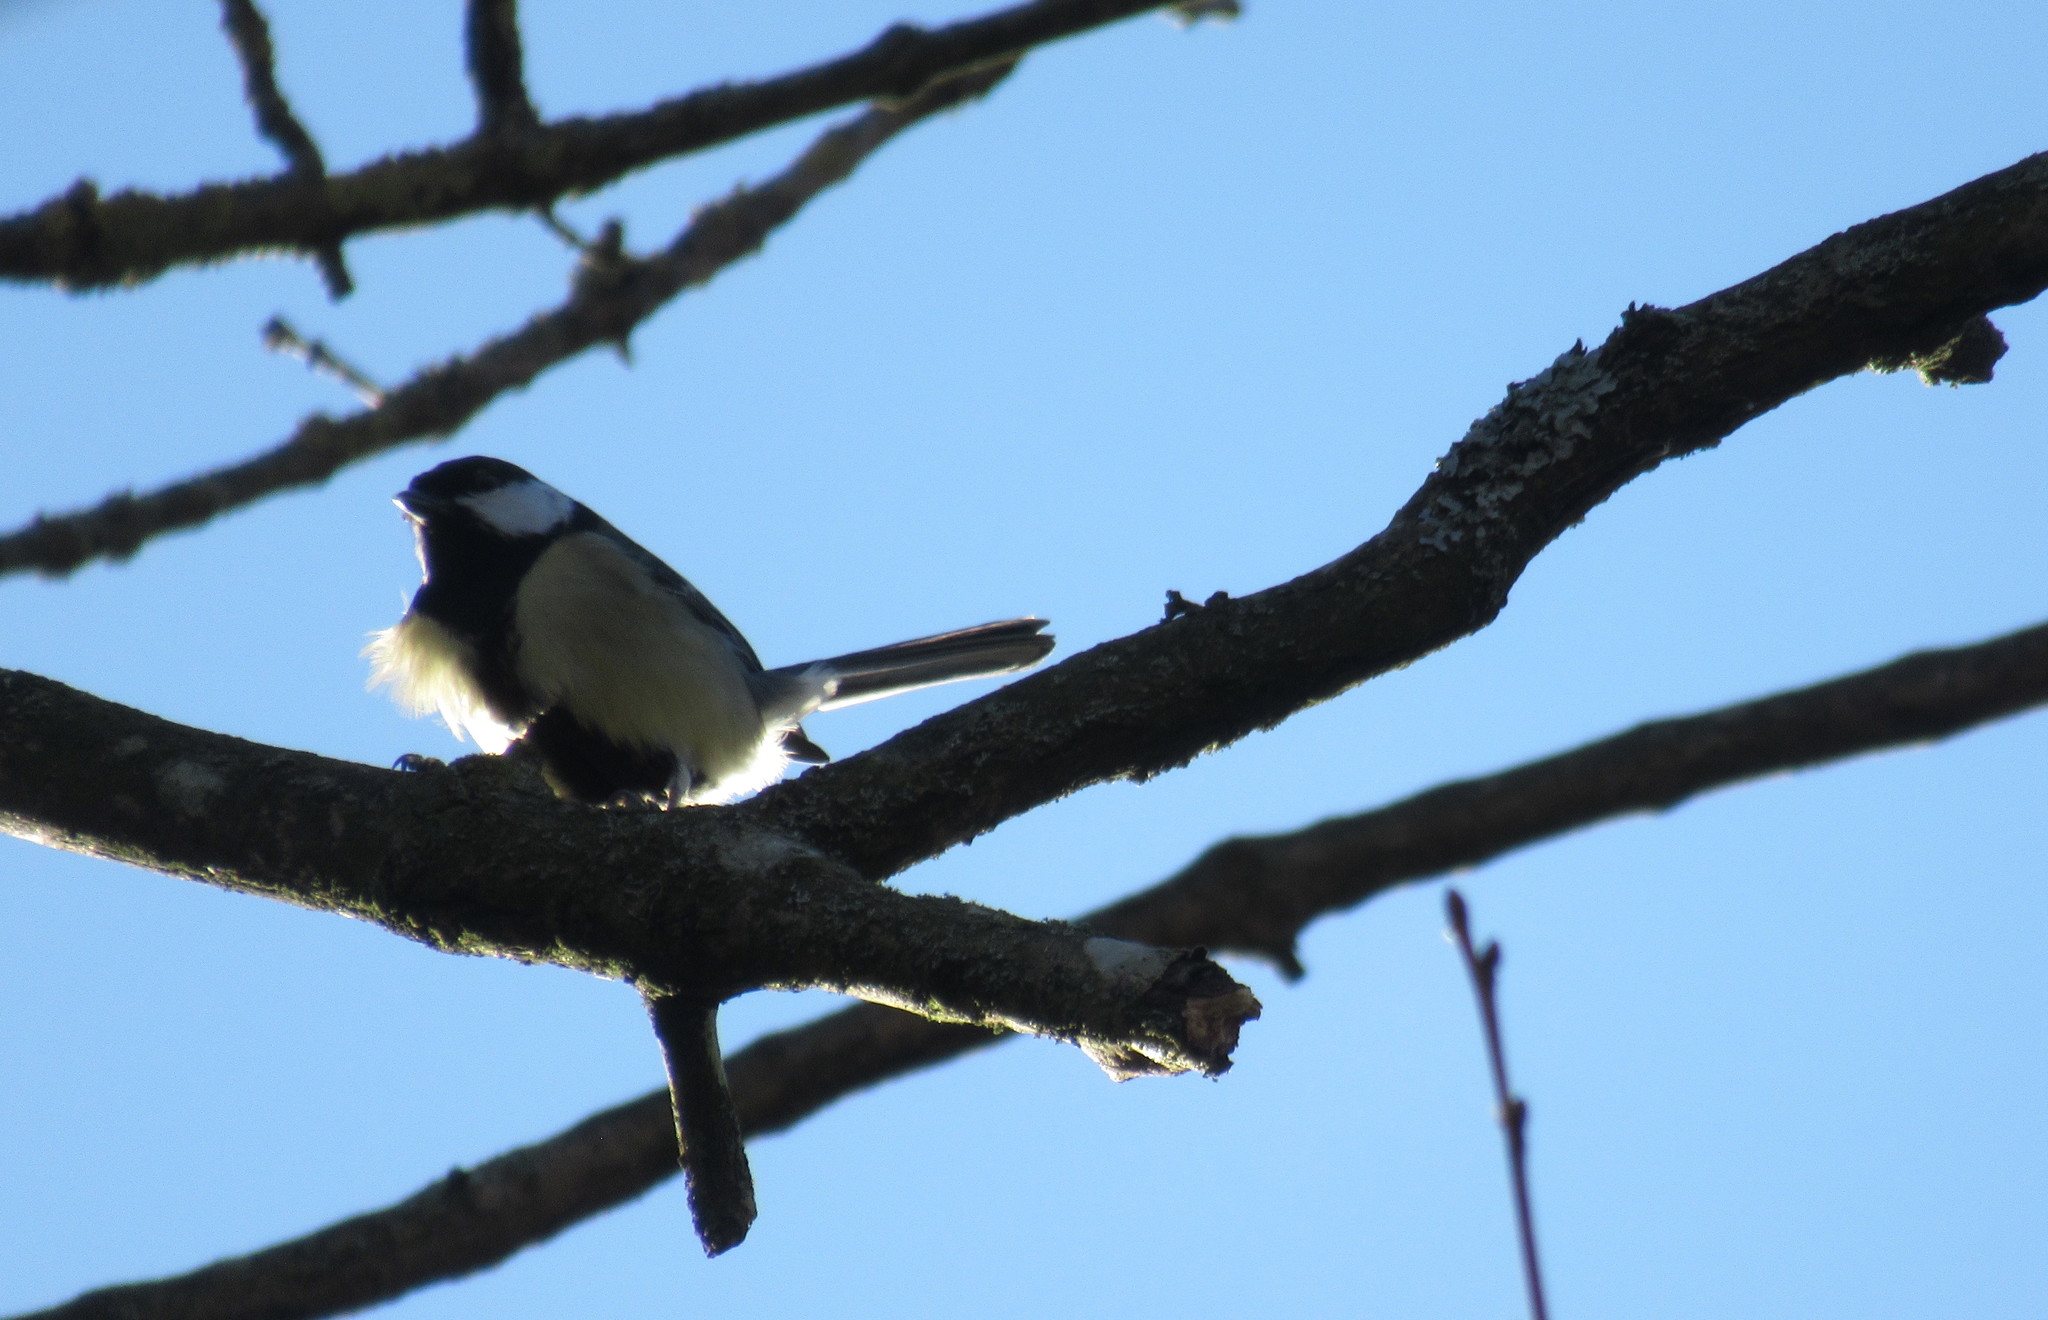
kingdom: Animalia
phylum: Chordata
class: Aves
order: Passeriformes
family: Paridae
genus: Parus
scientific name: Parus major
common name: Great tit
